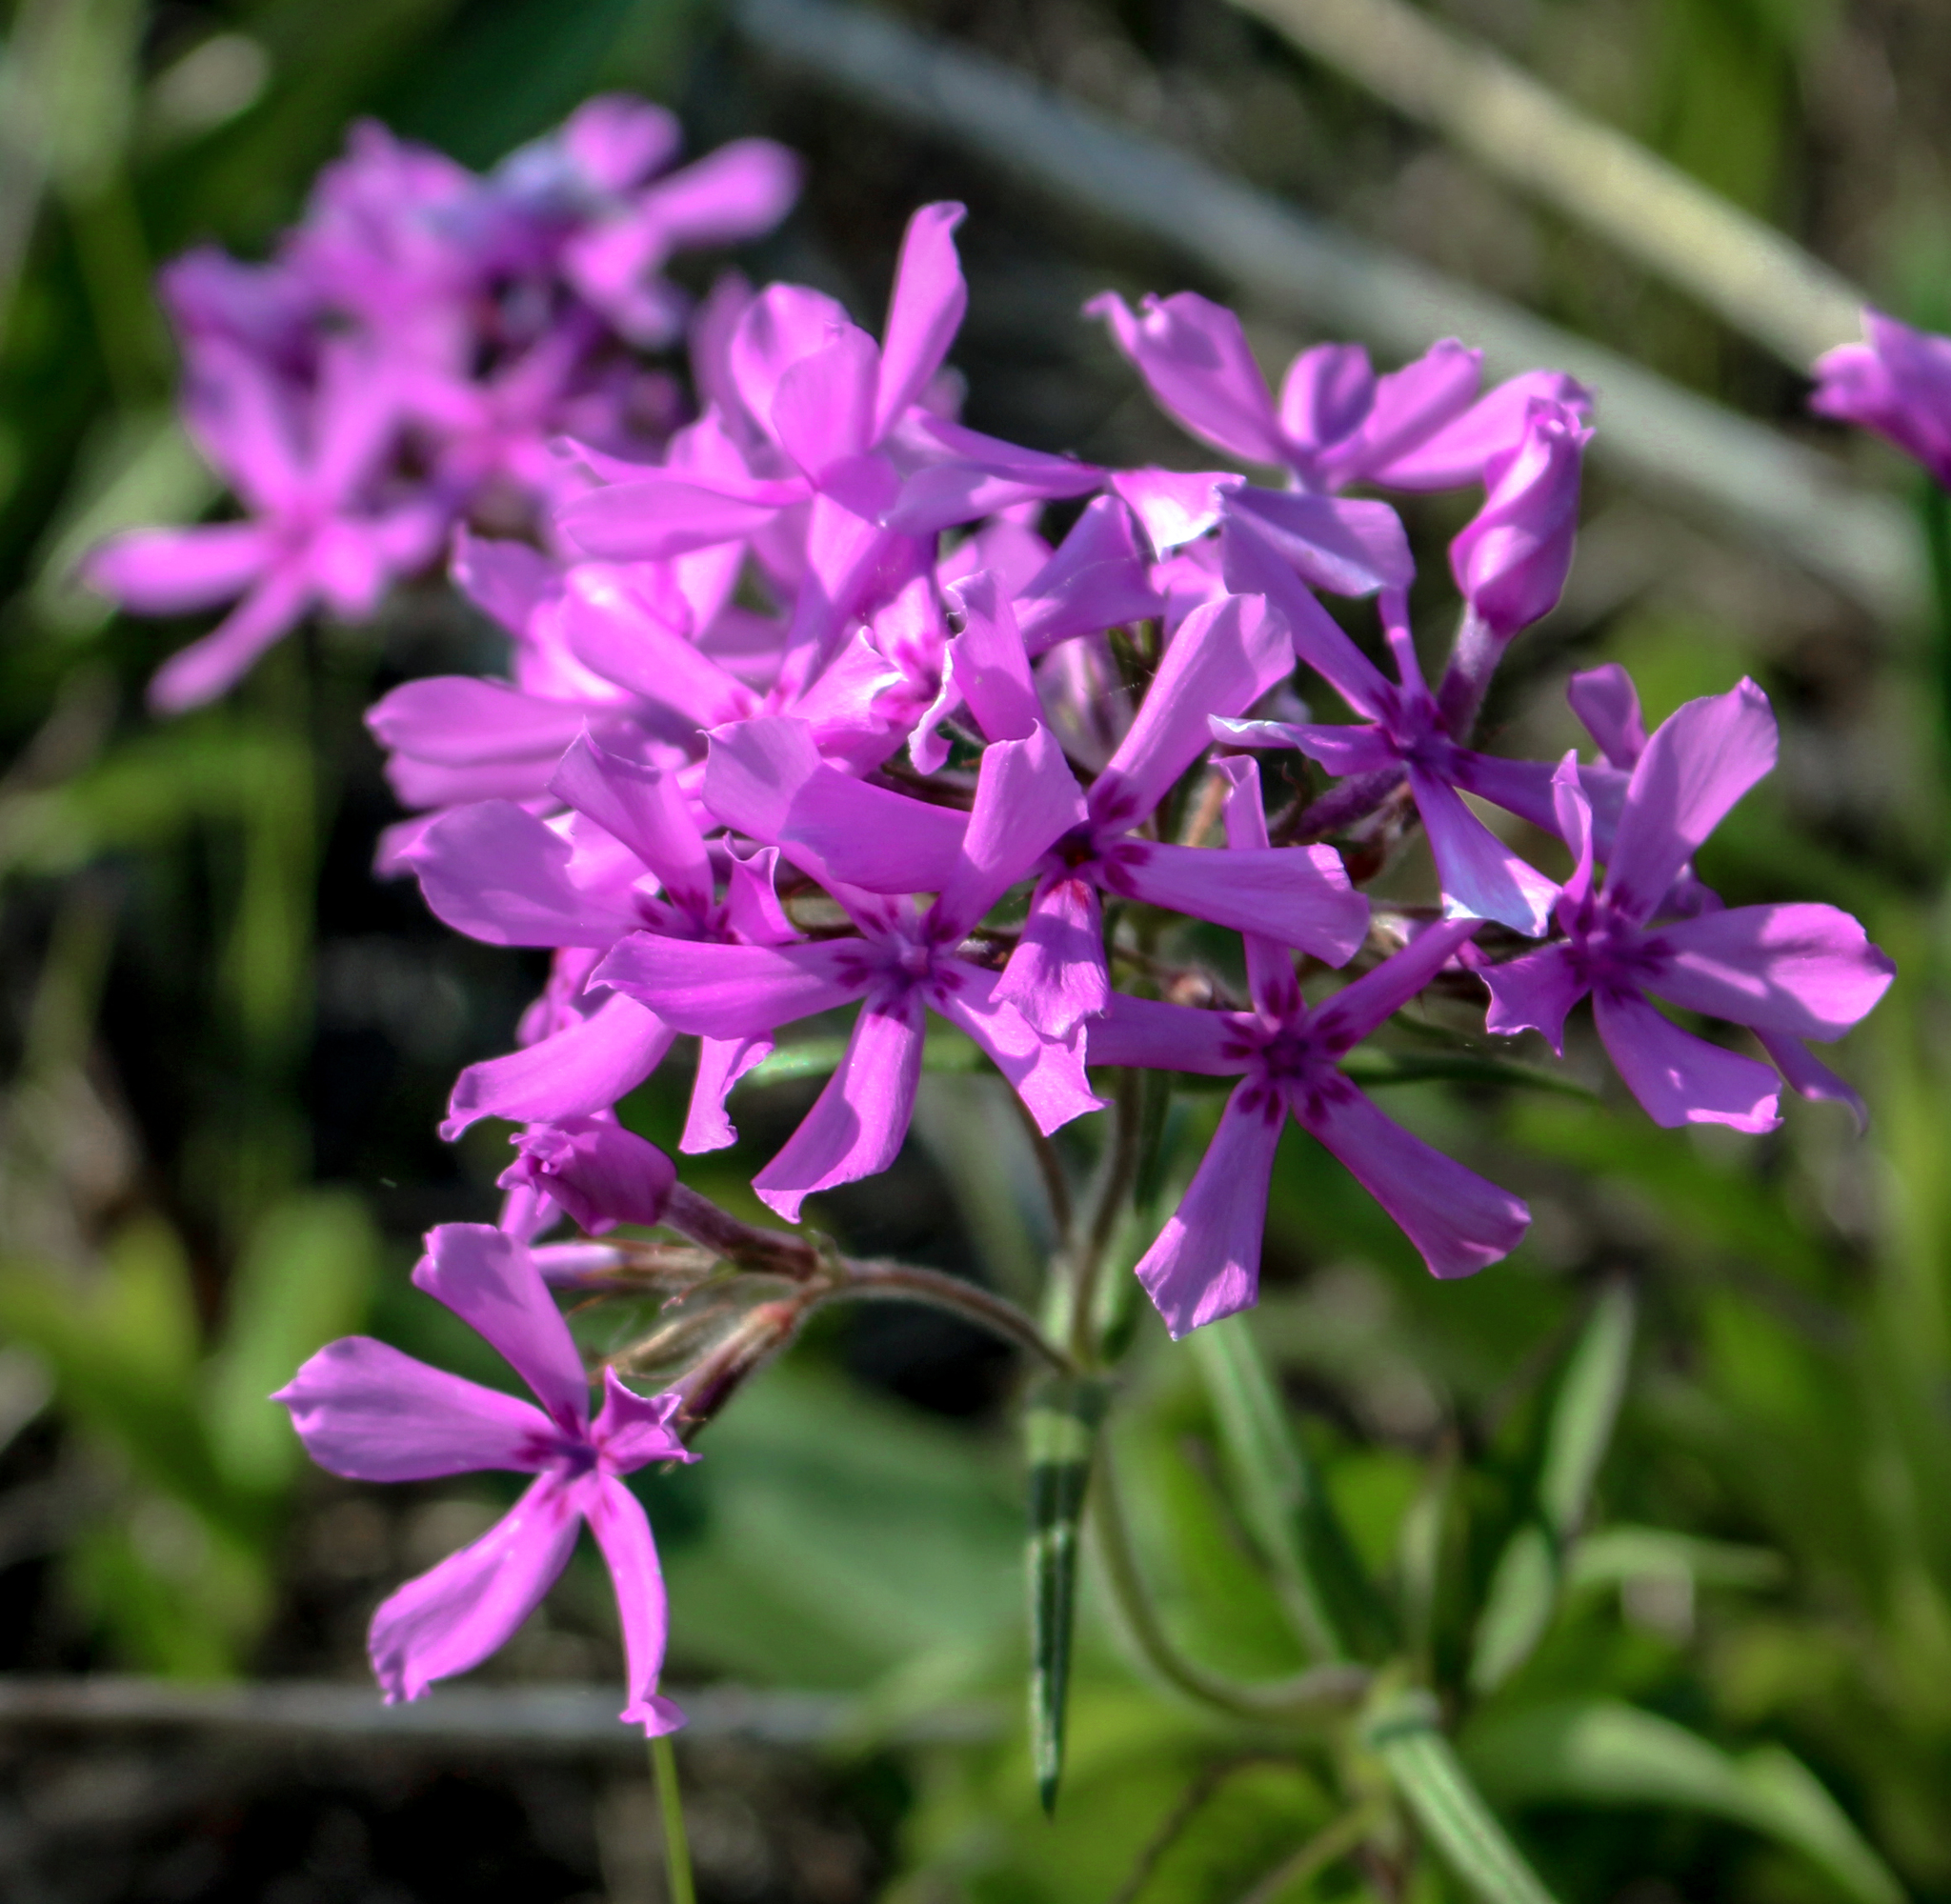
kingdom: Plantae
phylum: Tracheophyta
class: Magnoliopsida
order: Ericales
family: Polemoniaceae
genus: Phlox
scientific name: Phlox pilosa
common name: Prairie phlox
